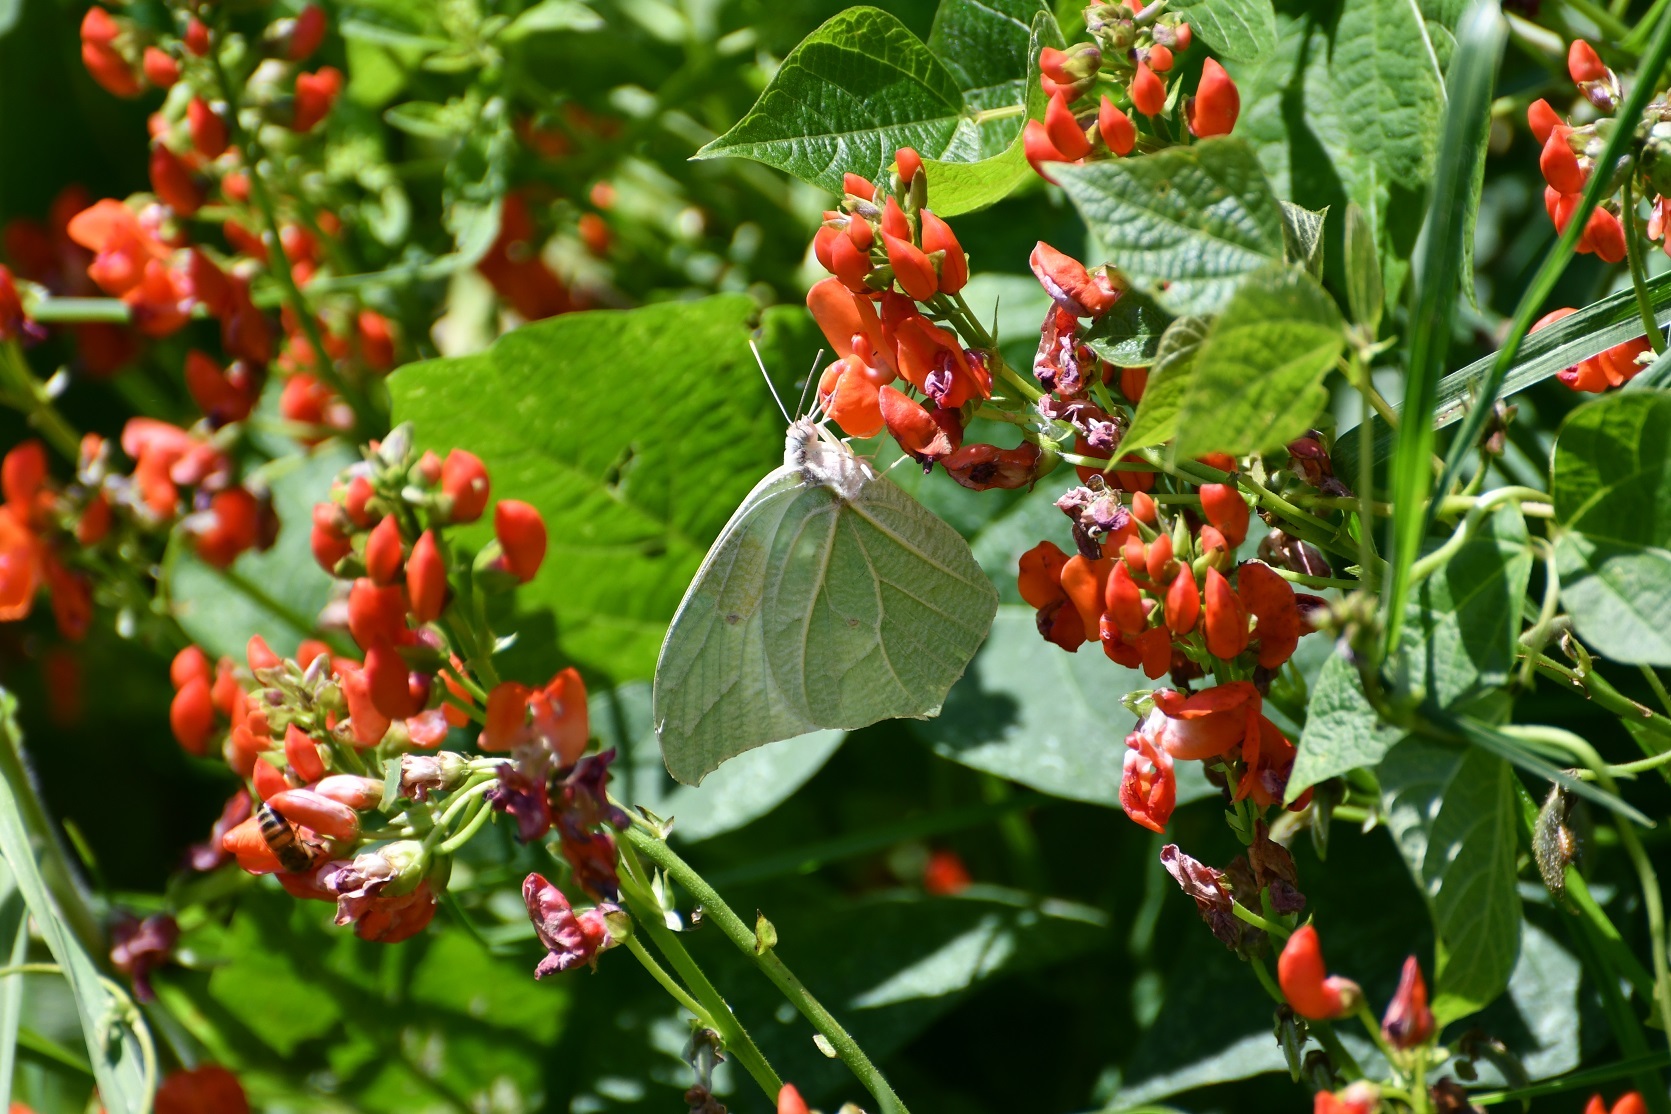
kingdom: Animalia
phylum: Arthropoda
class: Insecta
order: Lepidoptera
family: Pieridae
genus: Anteos
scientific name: Anteos clorinde
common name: White angled sulphur
